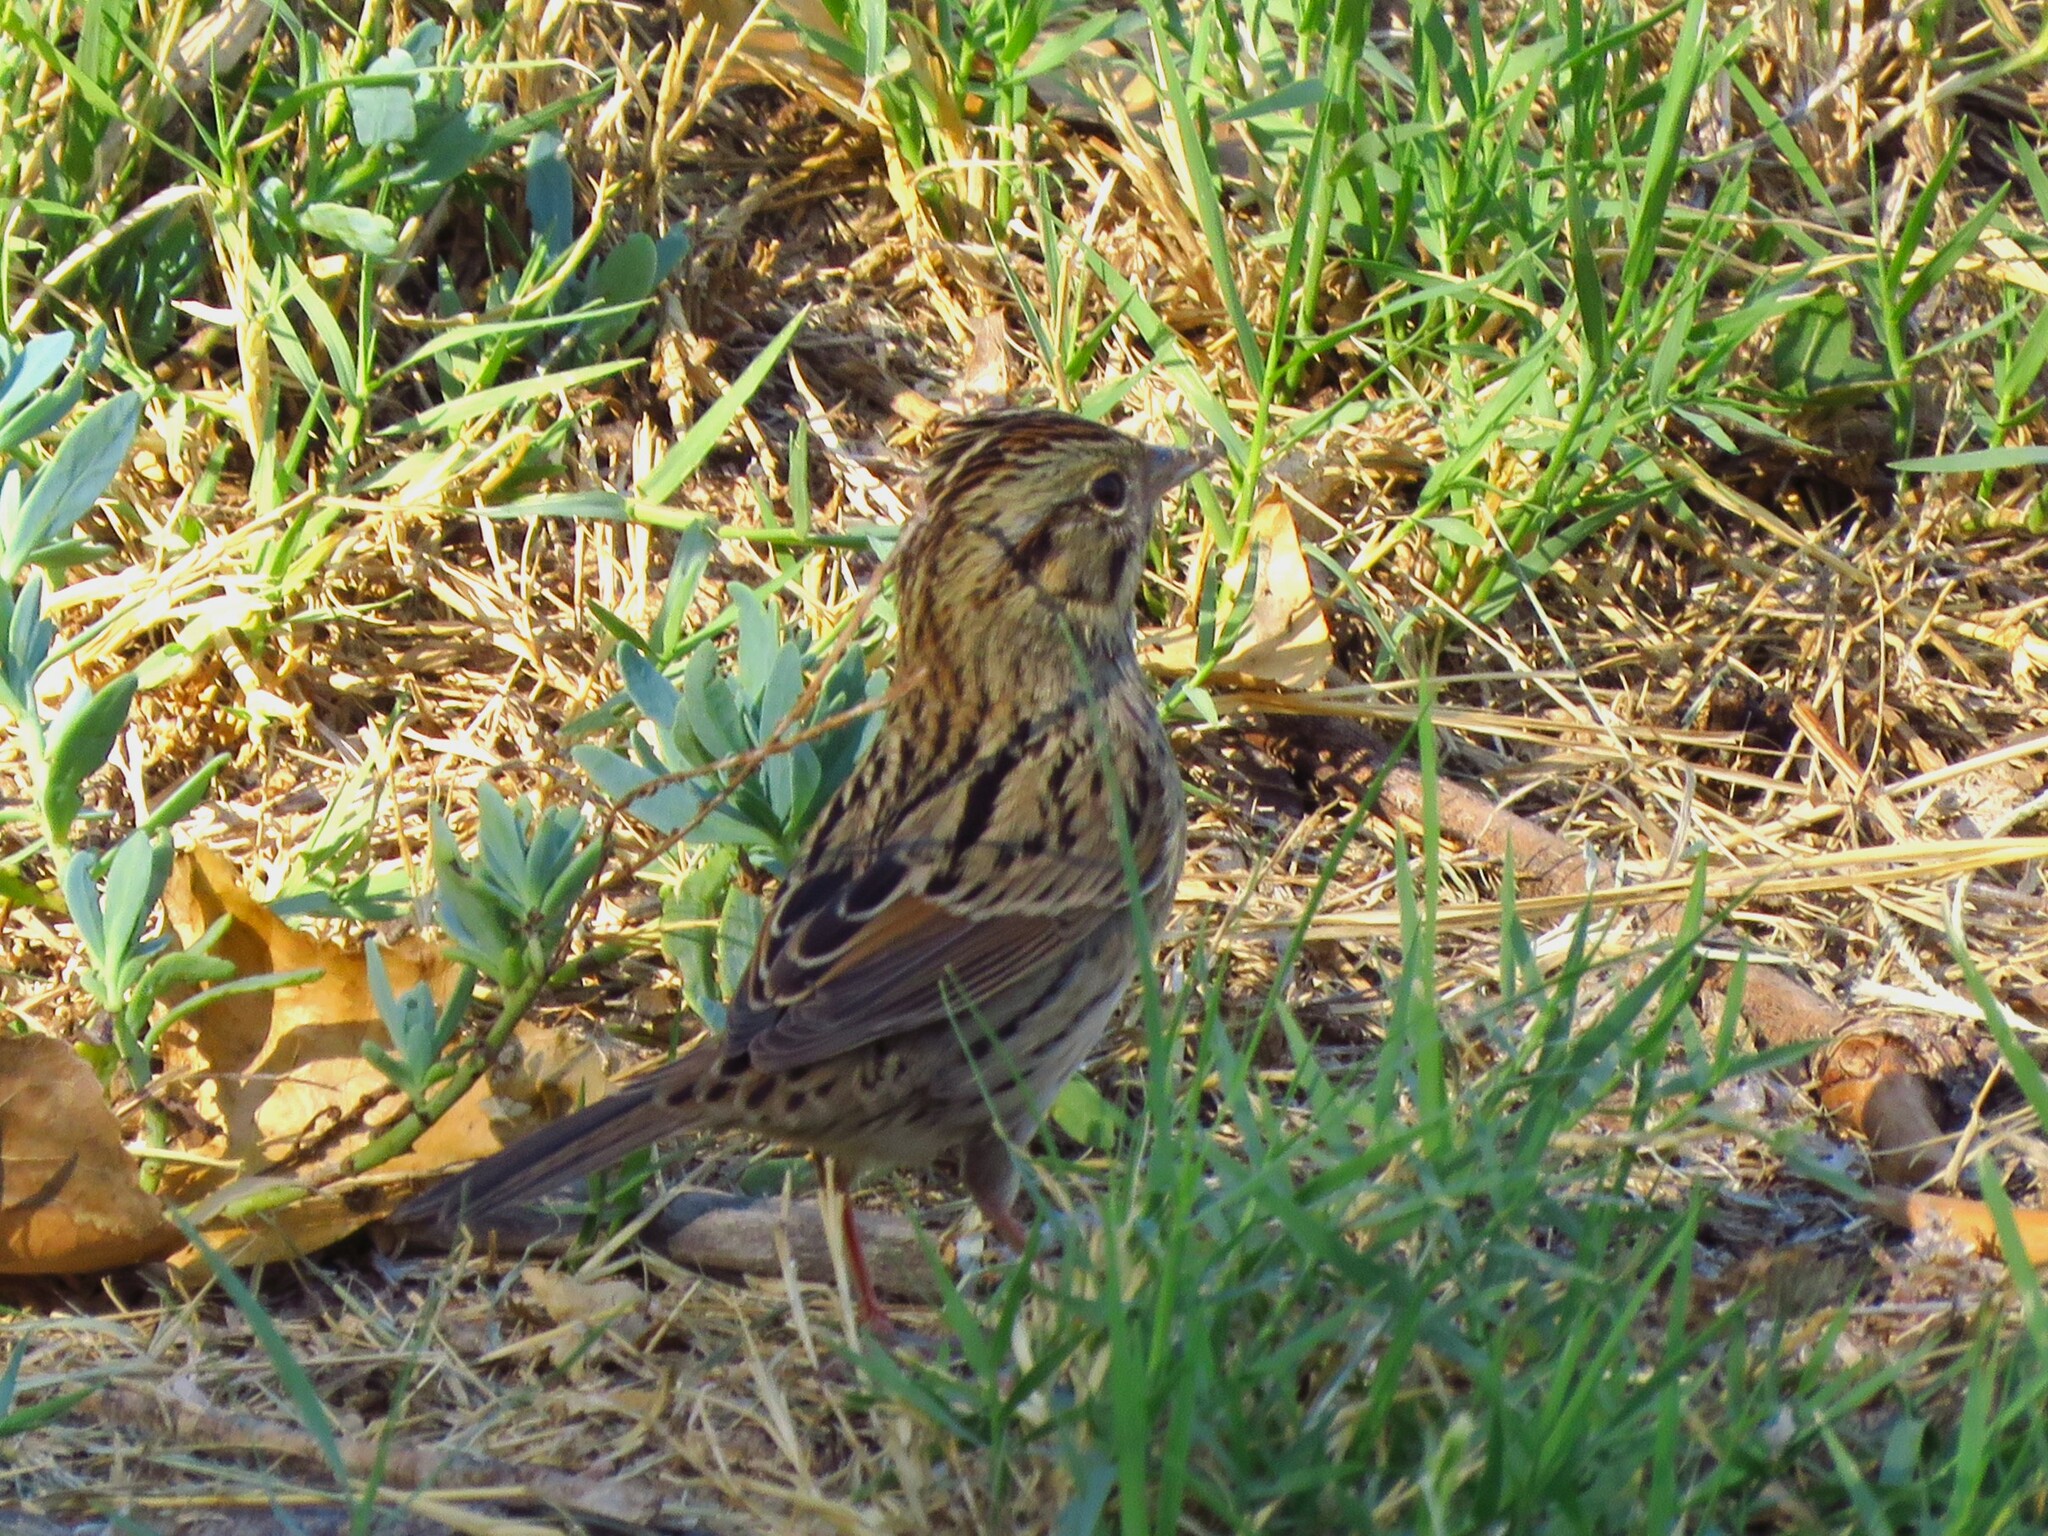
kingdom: Animalia
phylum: Chordata
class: Aves
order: Passeriformes
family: Passerellidae
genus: Melospiza
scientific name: Melospiza lincolnii
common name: Lincoln's sparrow
